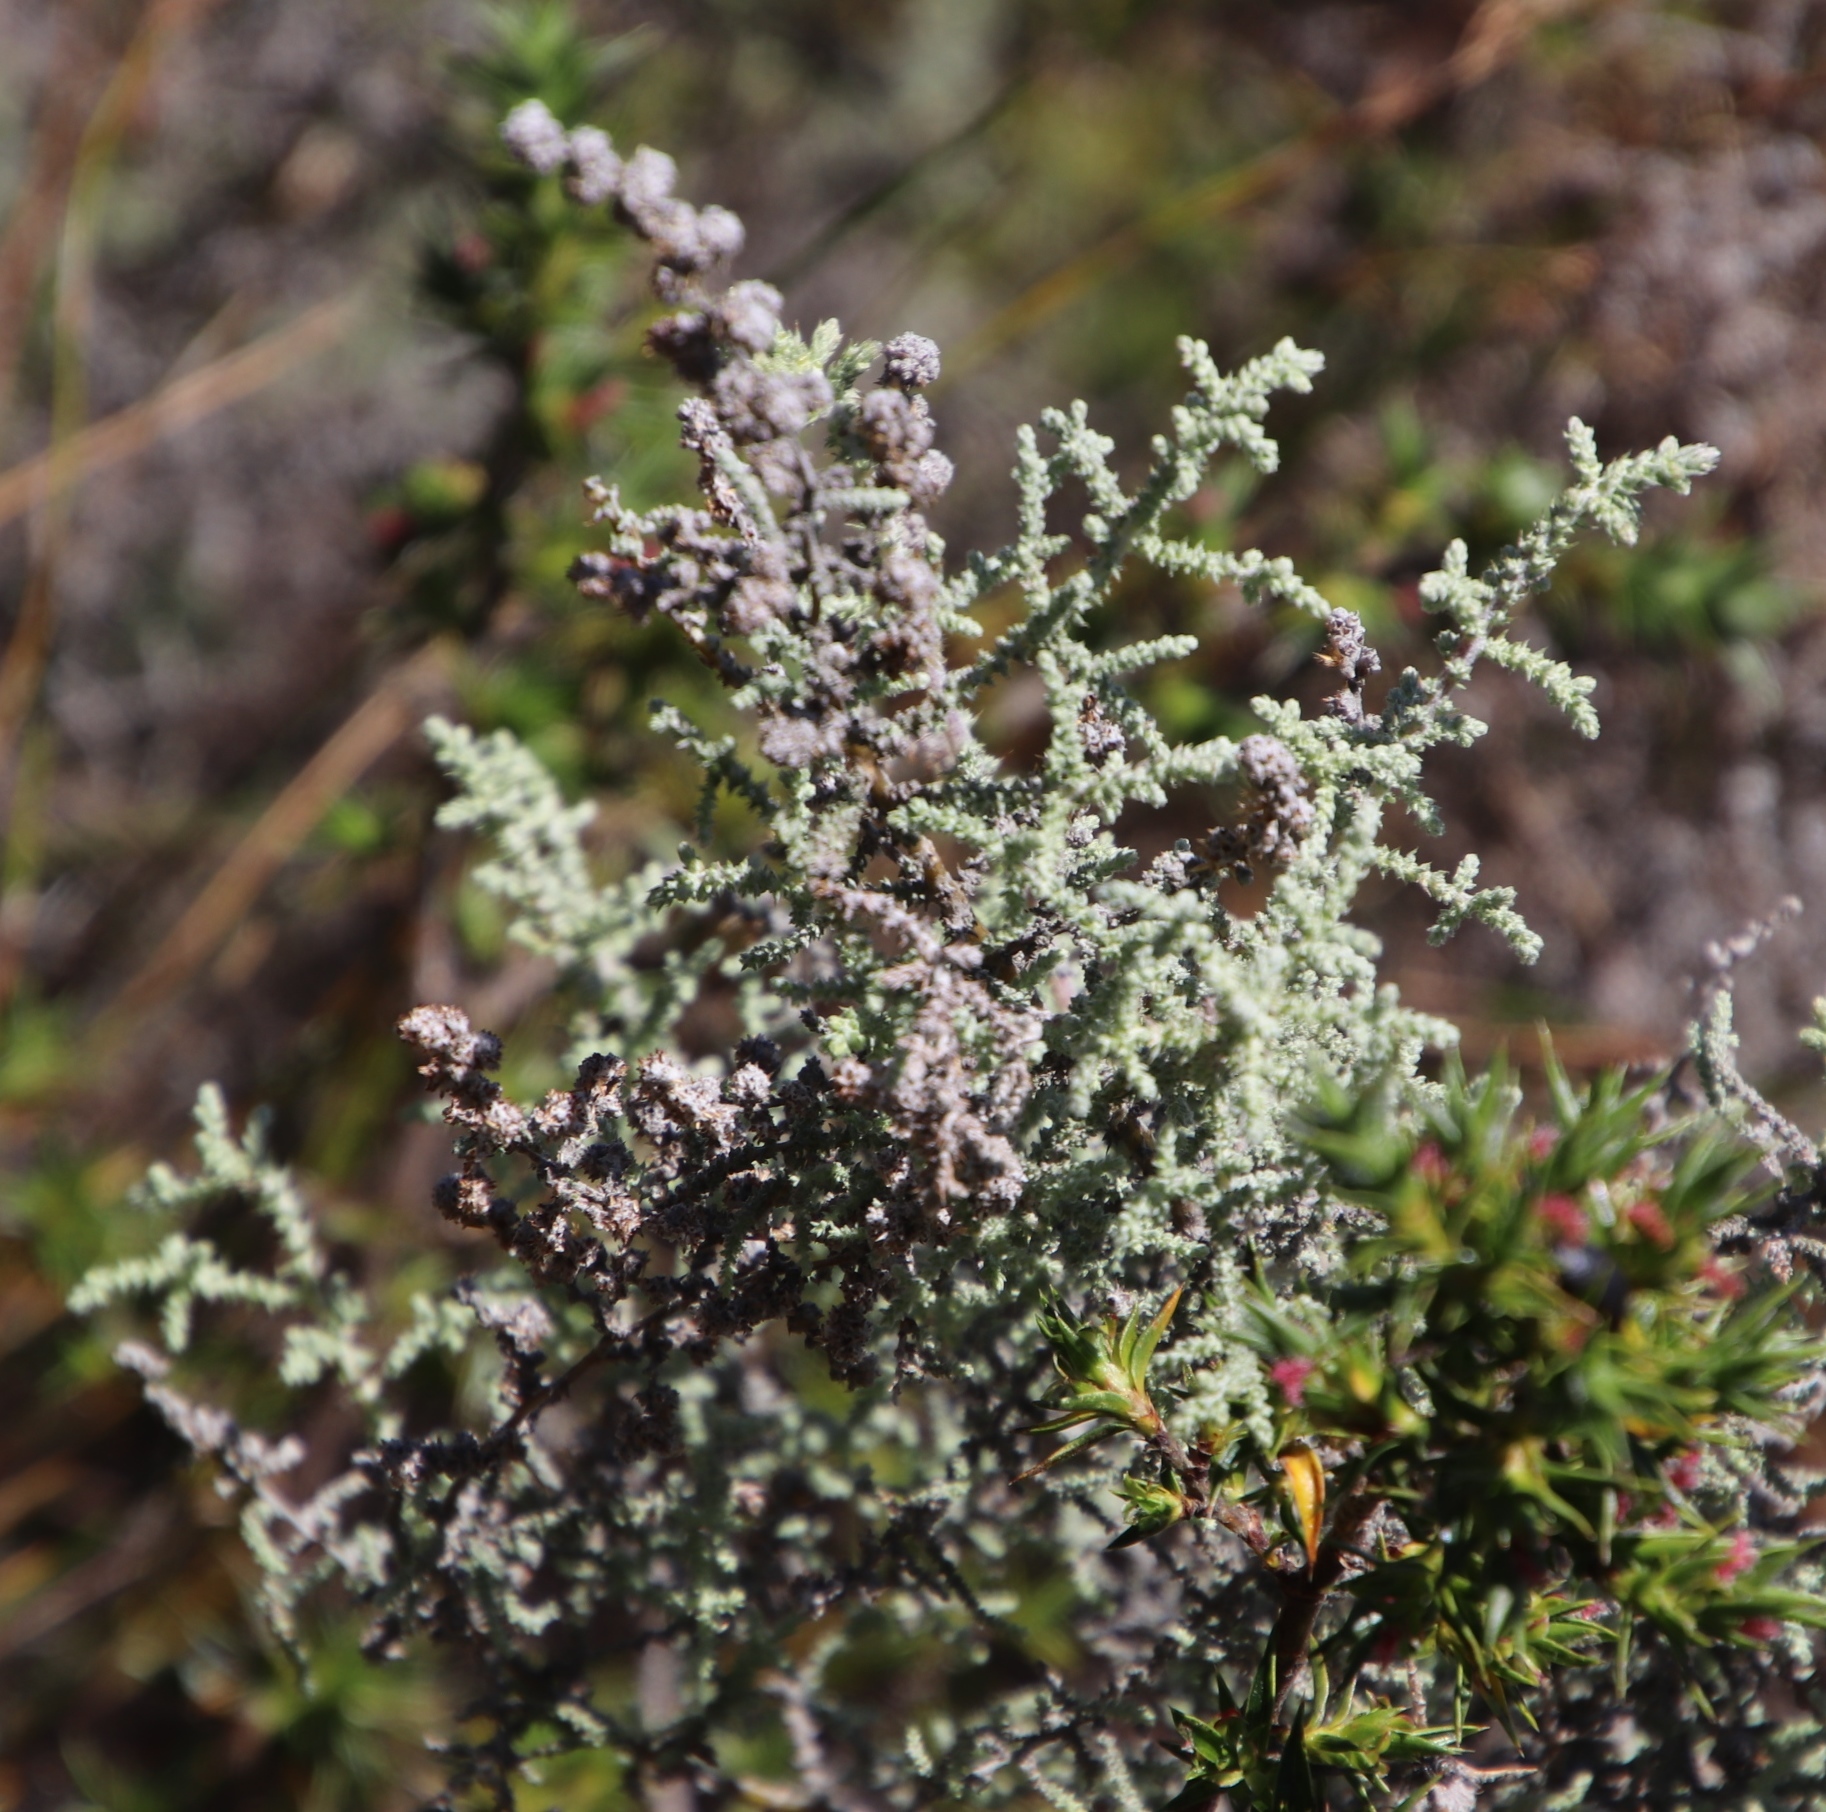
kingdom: Plantae
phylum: Tracheophyta
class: Magnoliopsida
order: Asterales
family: Asteraceae
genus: Seriphium
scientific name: Seriphium plumosum
